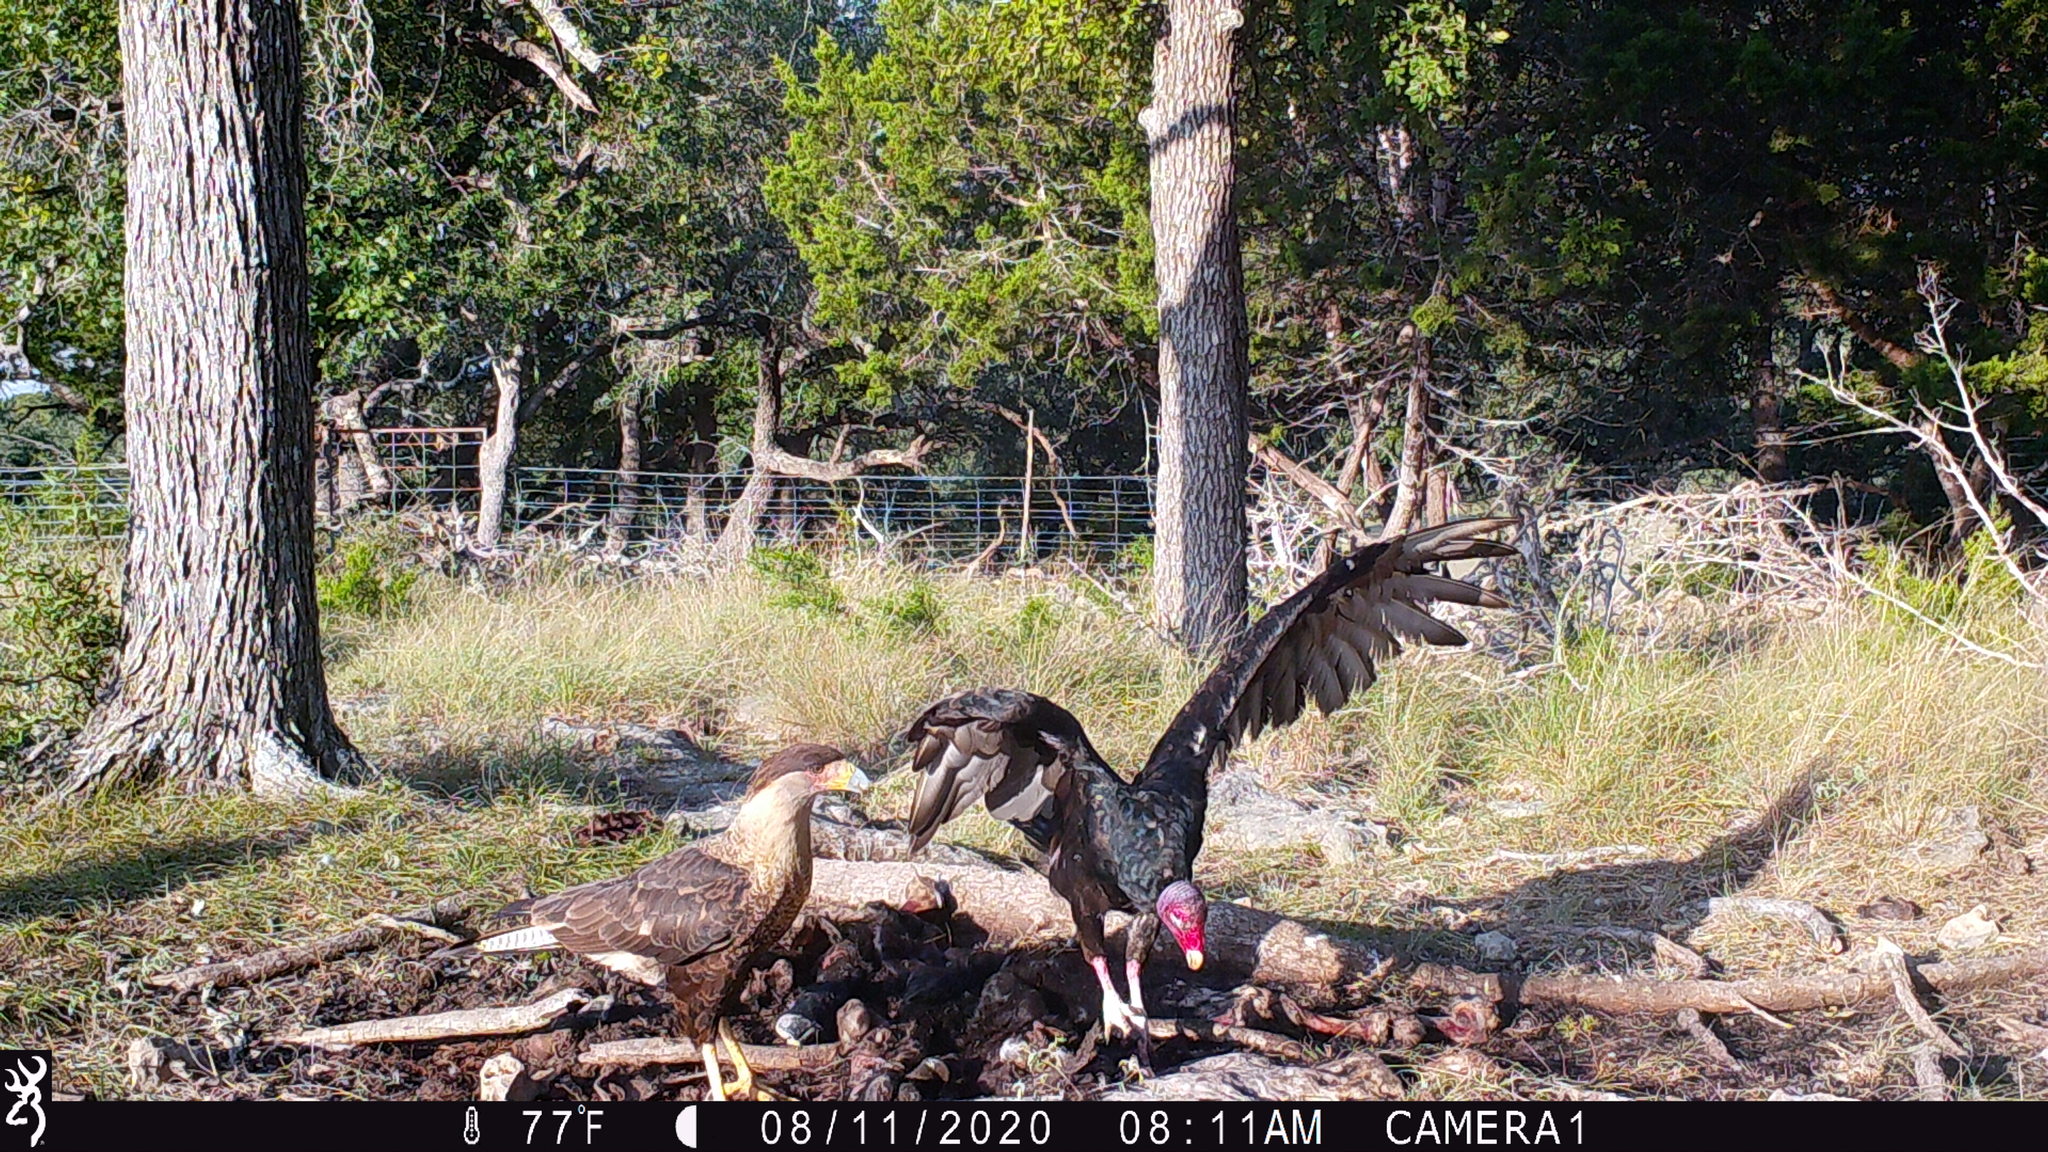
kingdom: Animalia
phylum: Chordata
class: Aves
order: Falconiformes
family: Falconidae
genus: Caracara
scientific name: Caracara plancus
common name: Southern caracara
